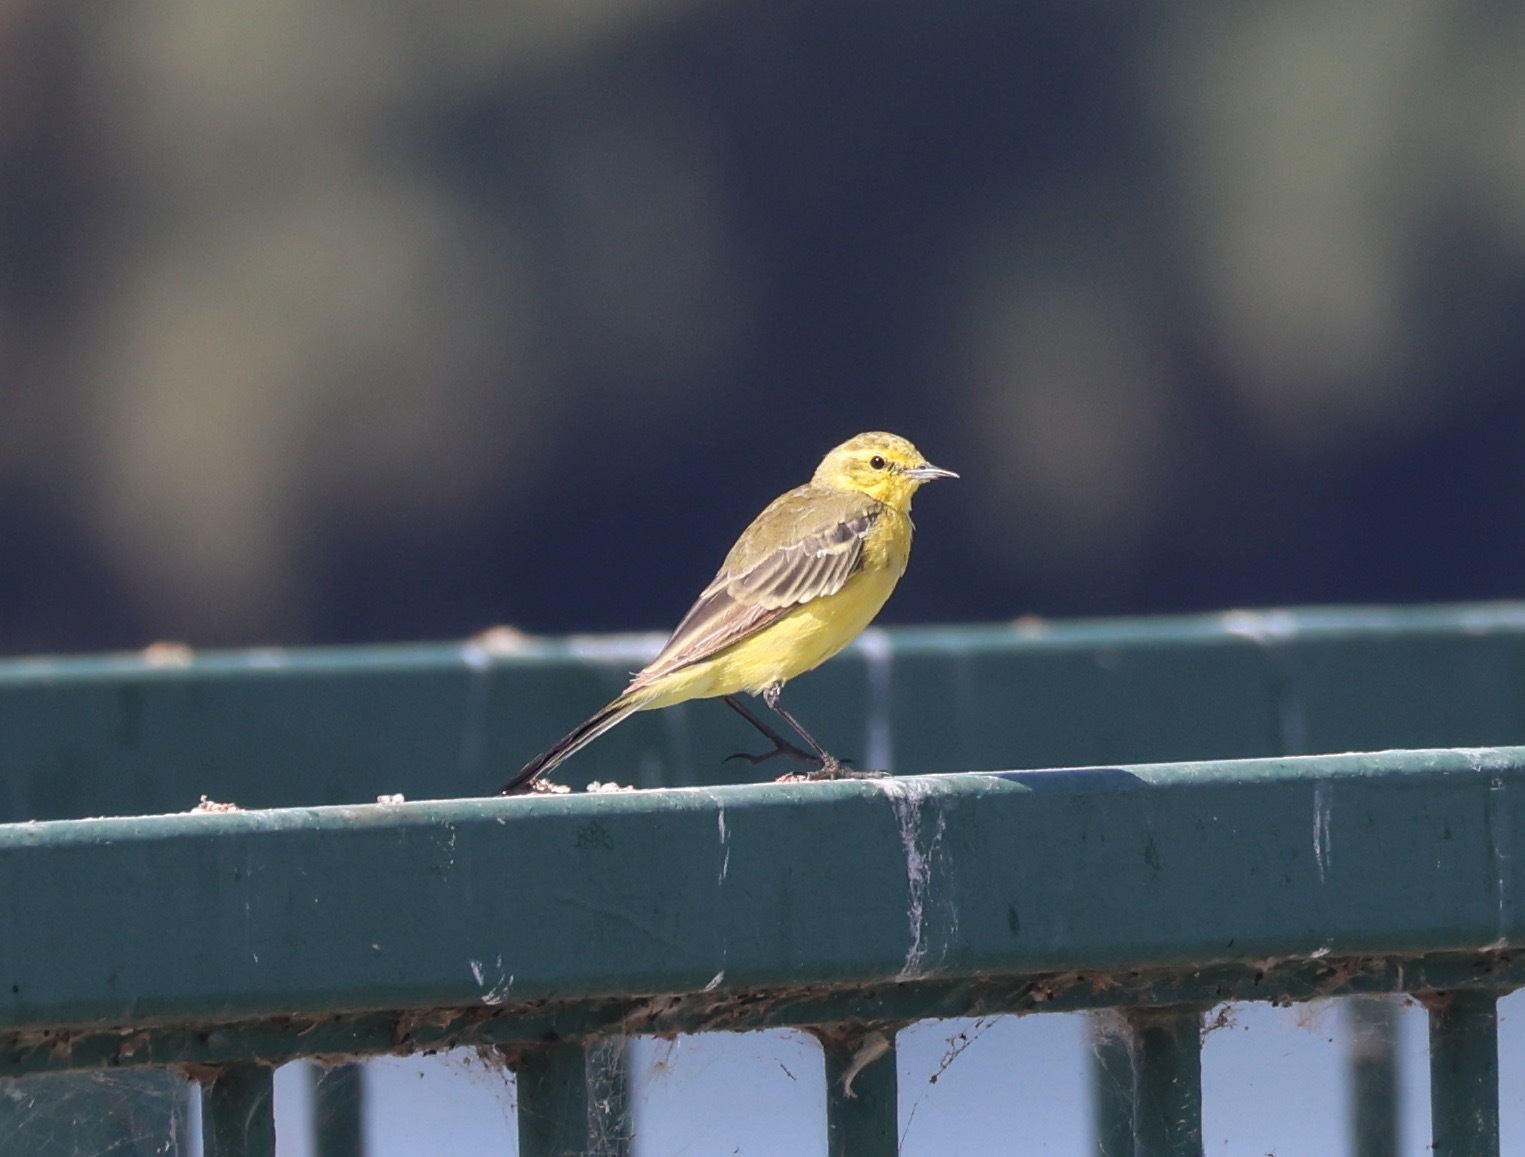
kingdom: Animalia
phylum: Chordata
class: Aves
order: Passeriformes
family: Motacillidae
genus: Motacilla
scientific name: Motacilla flava
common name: Western yellow wagtail
